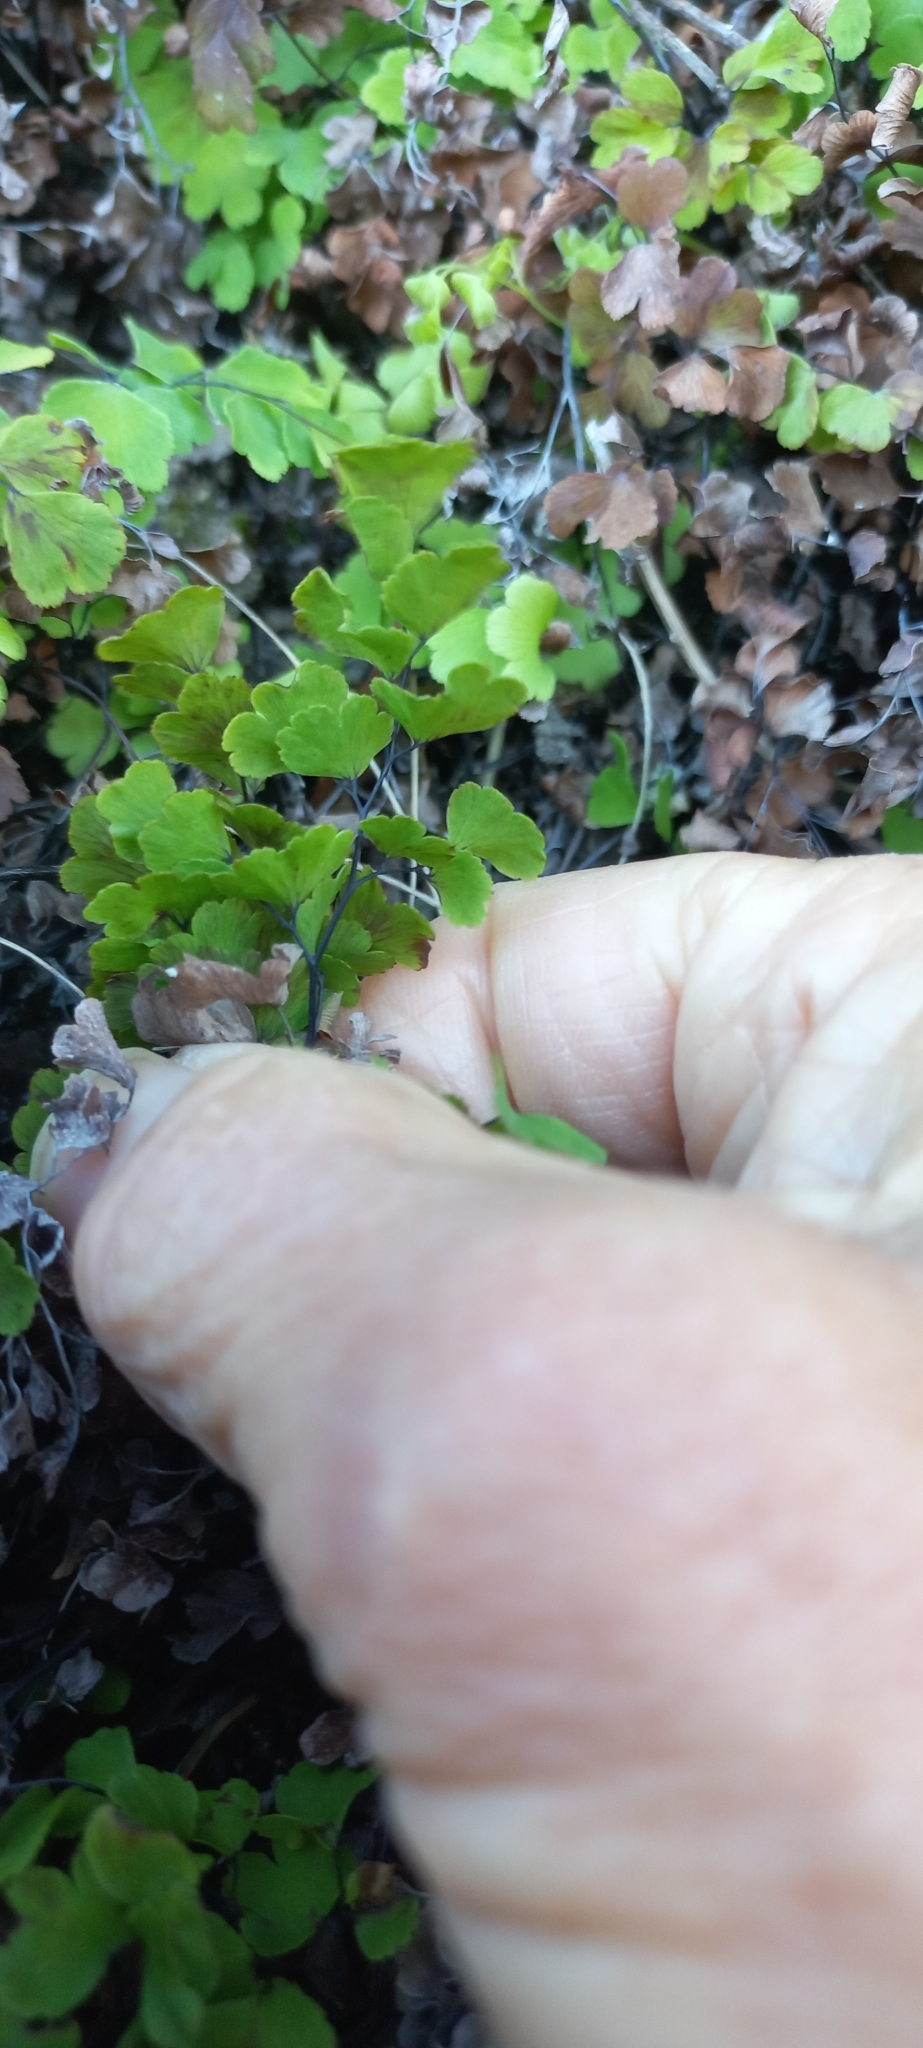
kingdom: Plantae
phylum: Tracheophyta
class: Polypodiopsida
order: Polypodiales
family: Pteridaceae
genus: Adiantum
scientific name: Adiantum capillus-veneris
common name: Maidenhair fern
